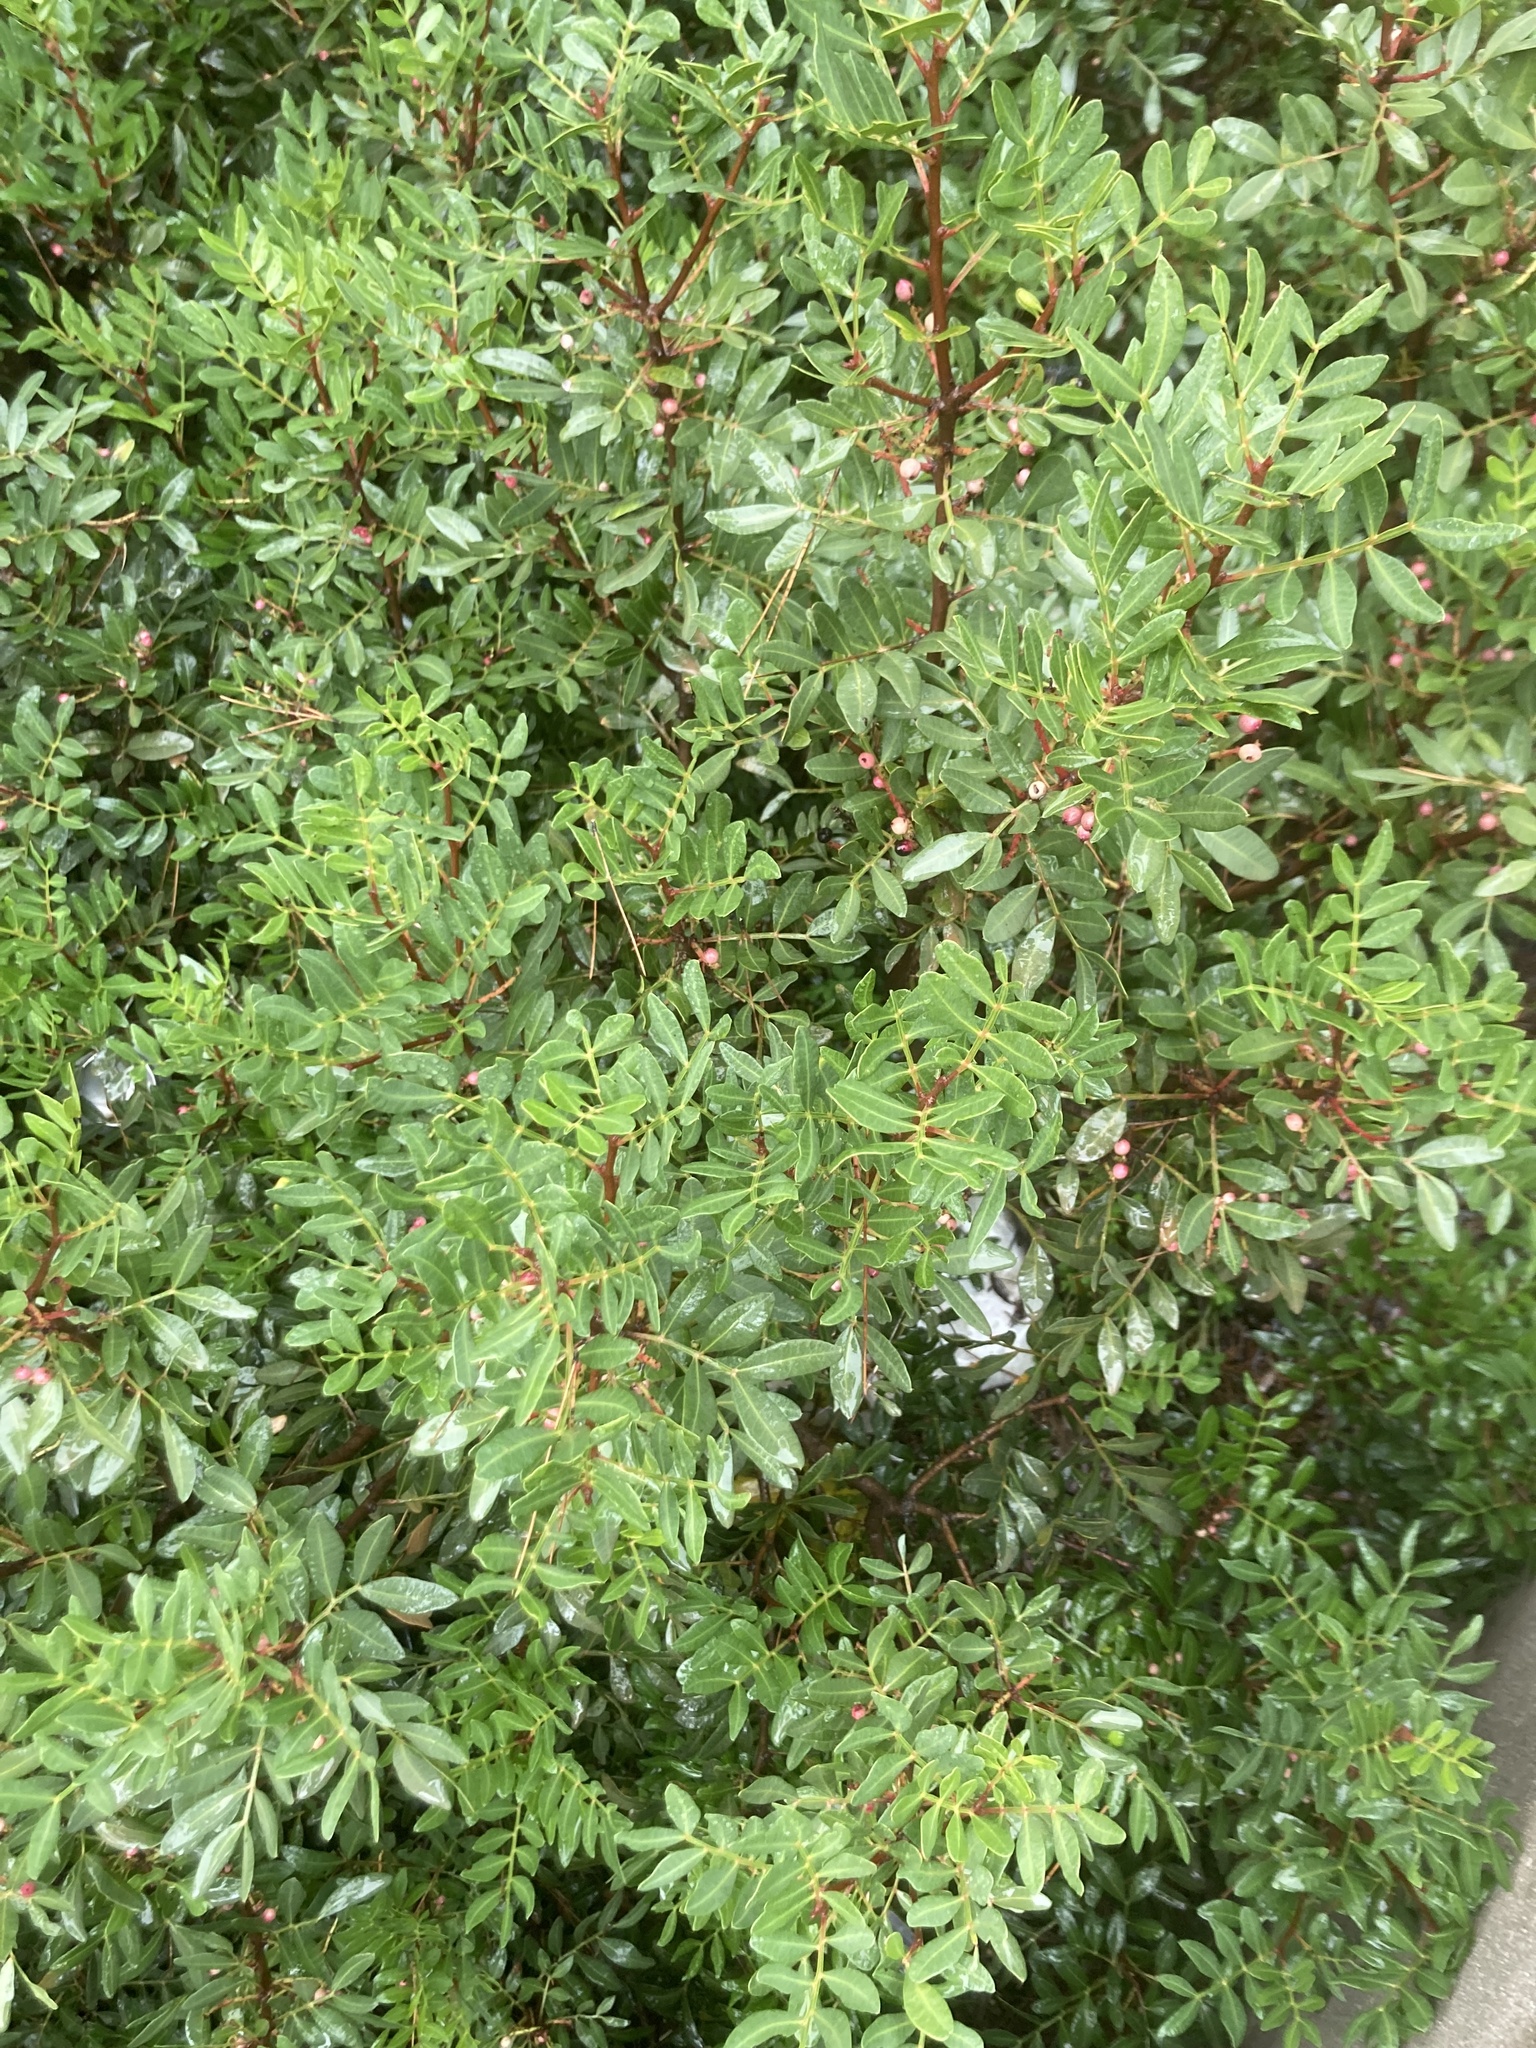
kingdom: Plantae
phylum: Tracheophyta
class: Magnoliopsida
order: Sapindales
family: Anacardiaceae
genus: Pistacia
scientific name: Pistacia lentiscus
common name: Lentisk
